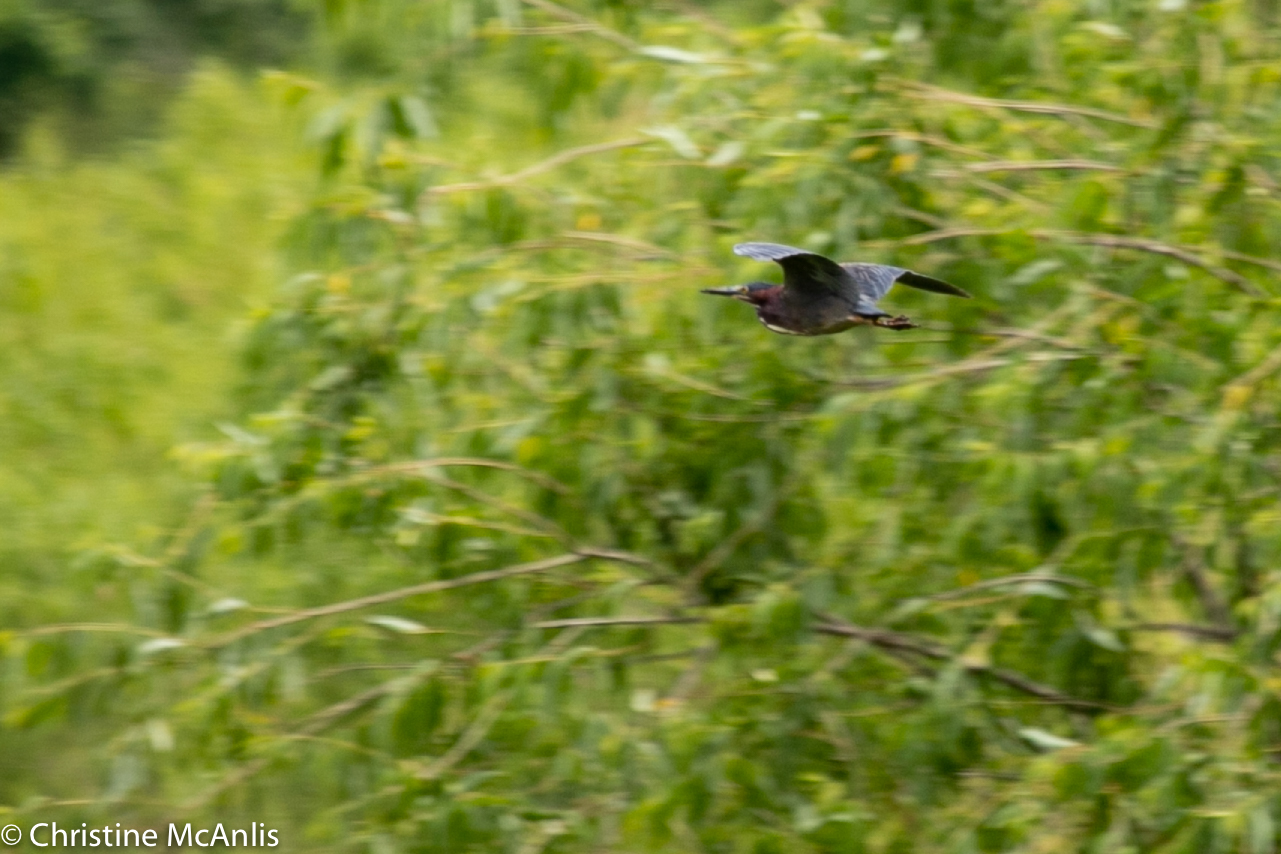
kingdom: Animalia
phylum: Chordata
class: Aves
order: Pelecaniformes
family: Ardeidae
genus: Butorides
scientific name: Butorides virescens
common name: Green heron
